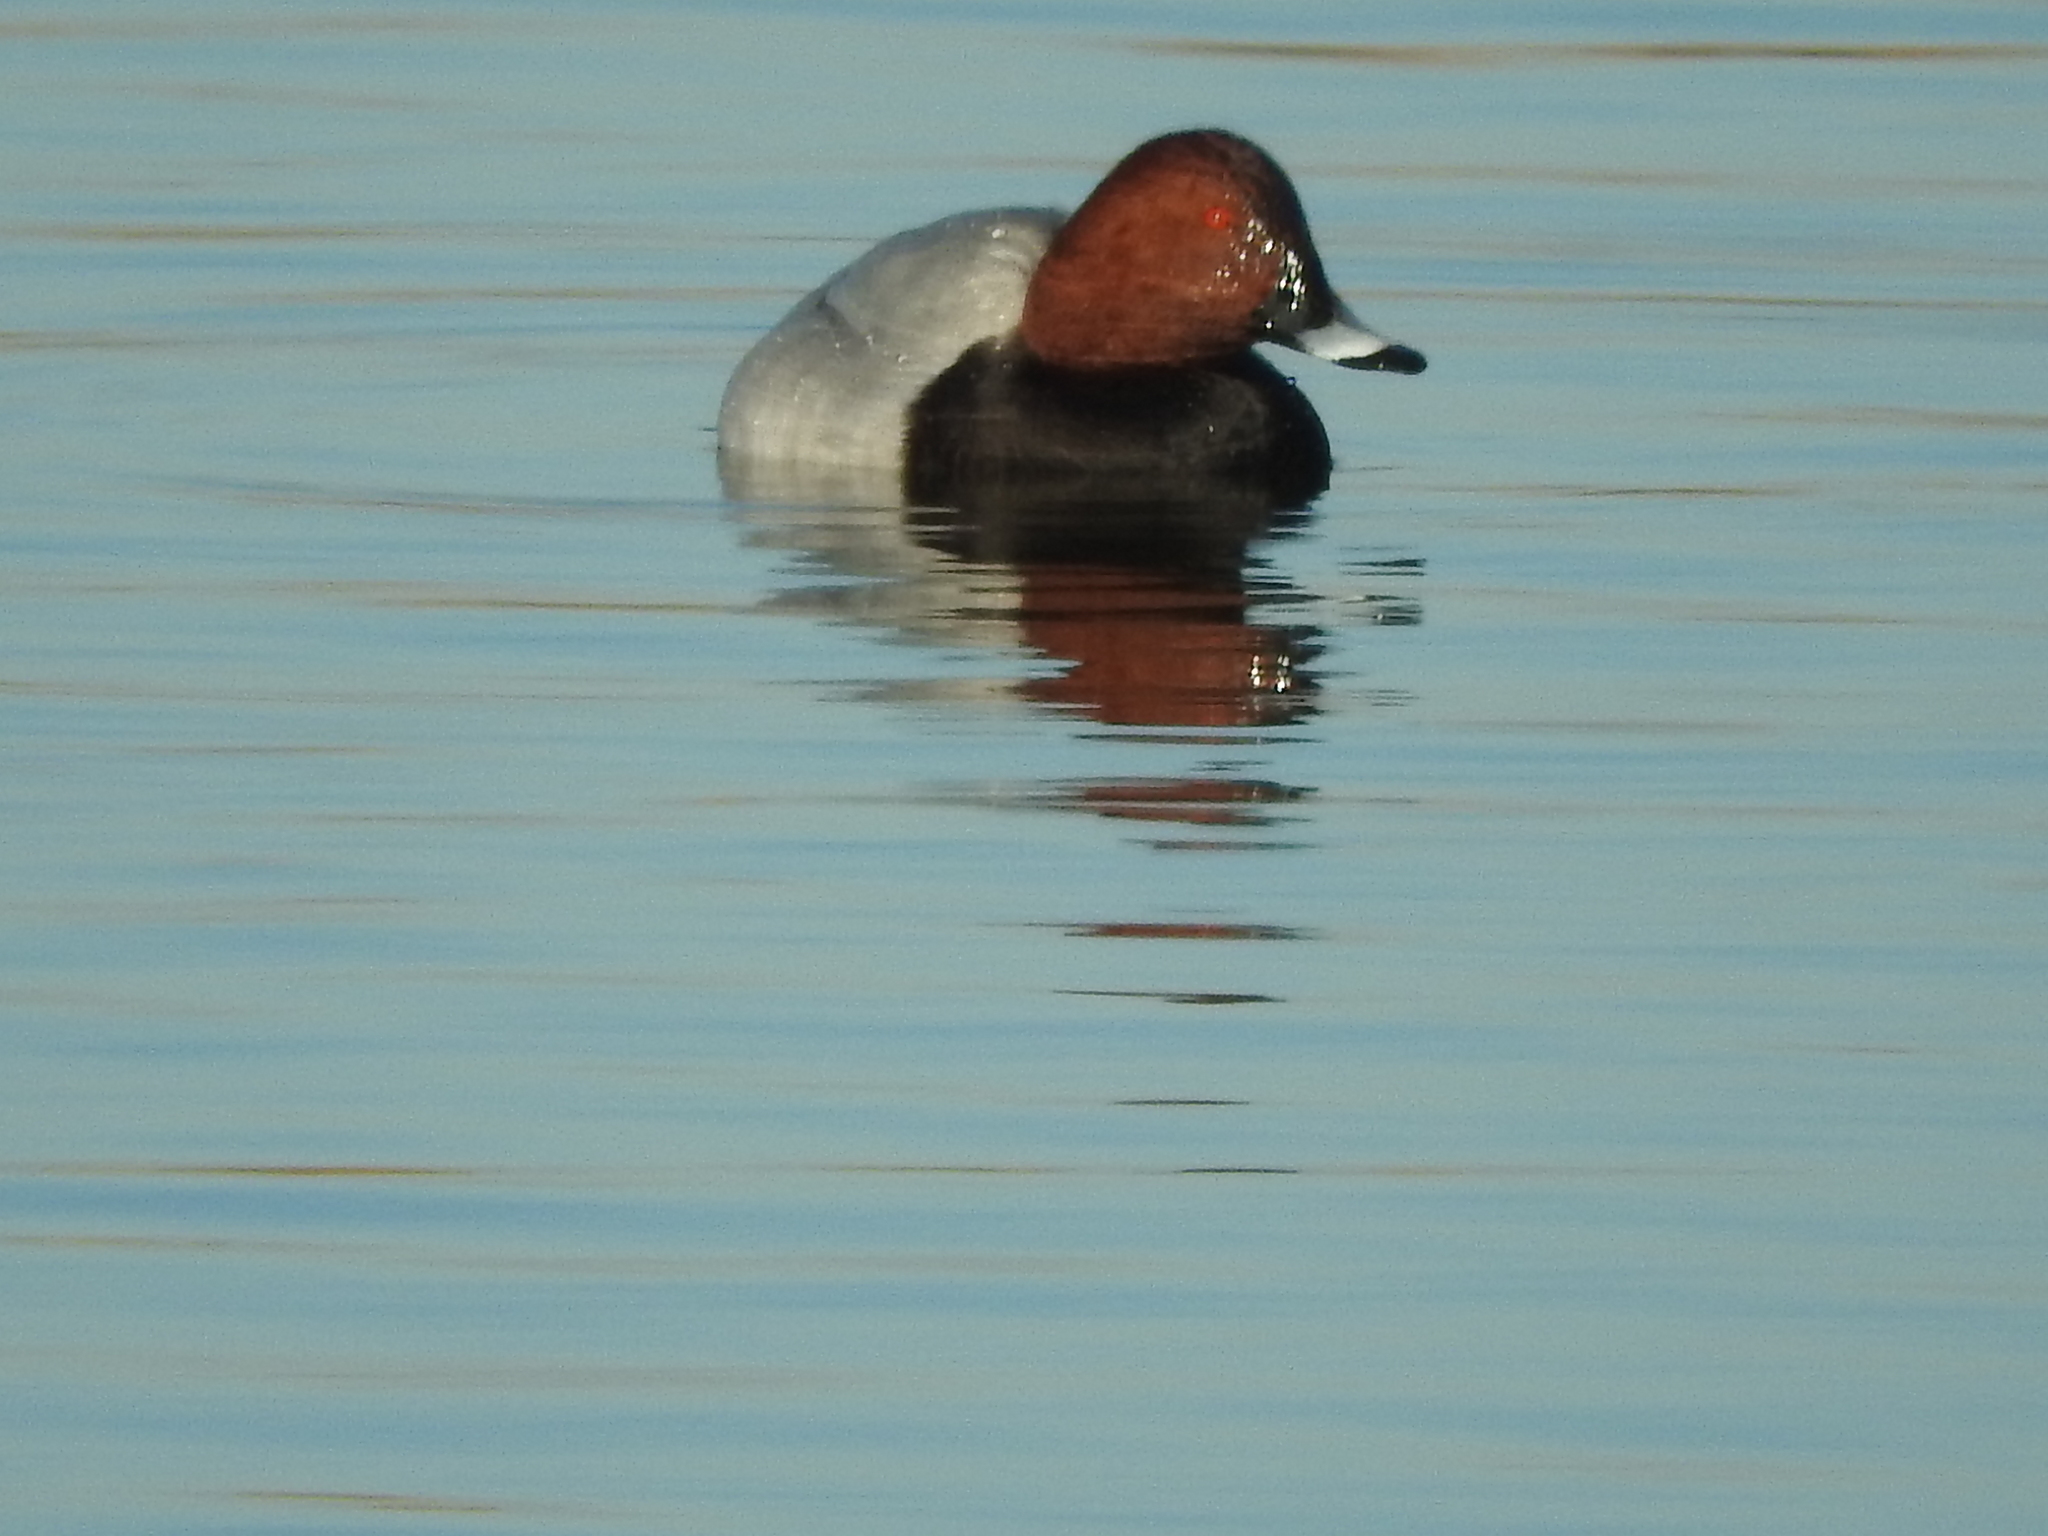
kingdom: Animalia
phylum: Chordata
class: Aves
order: Anseriformes
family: Anatidae
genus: Aythya
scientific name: Aythya ferina
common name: Common pochard
